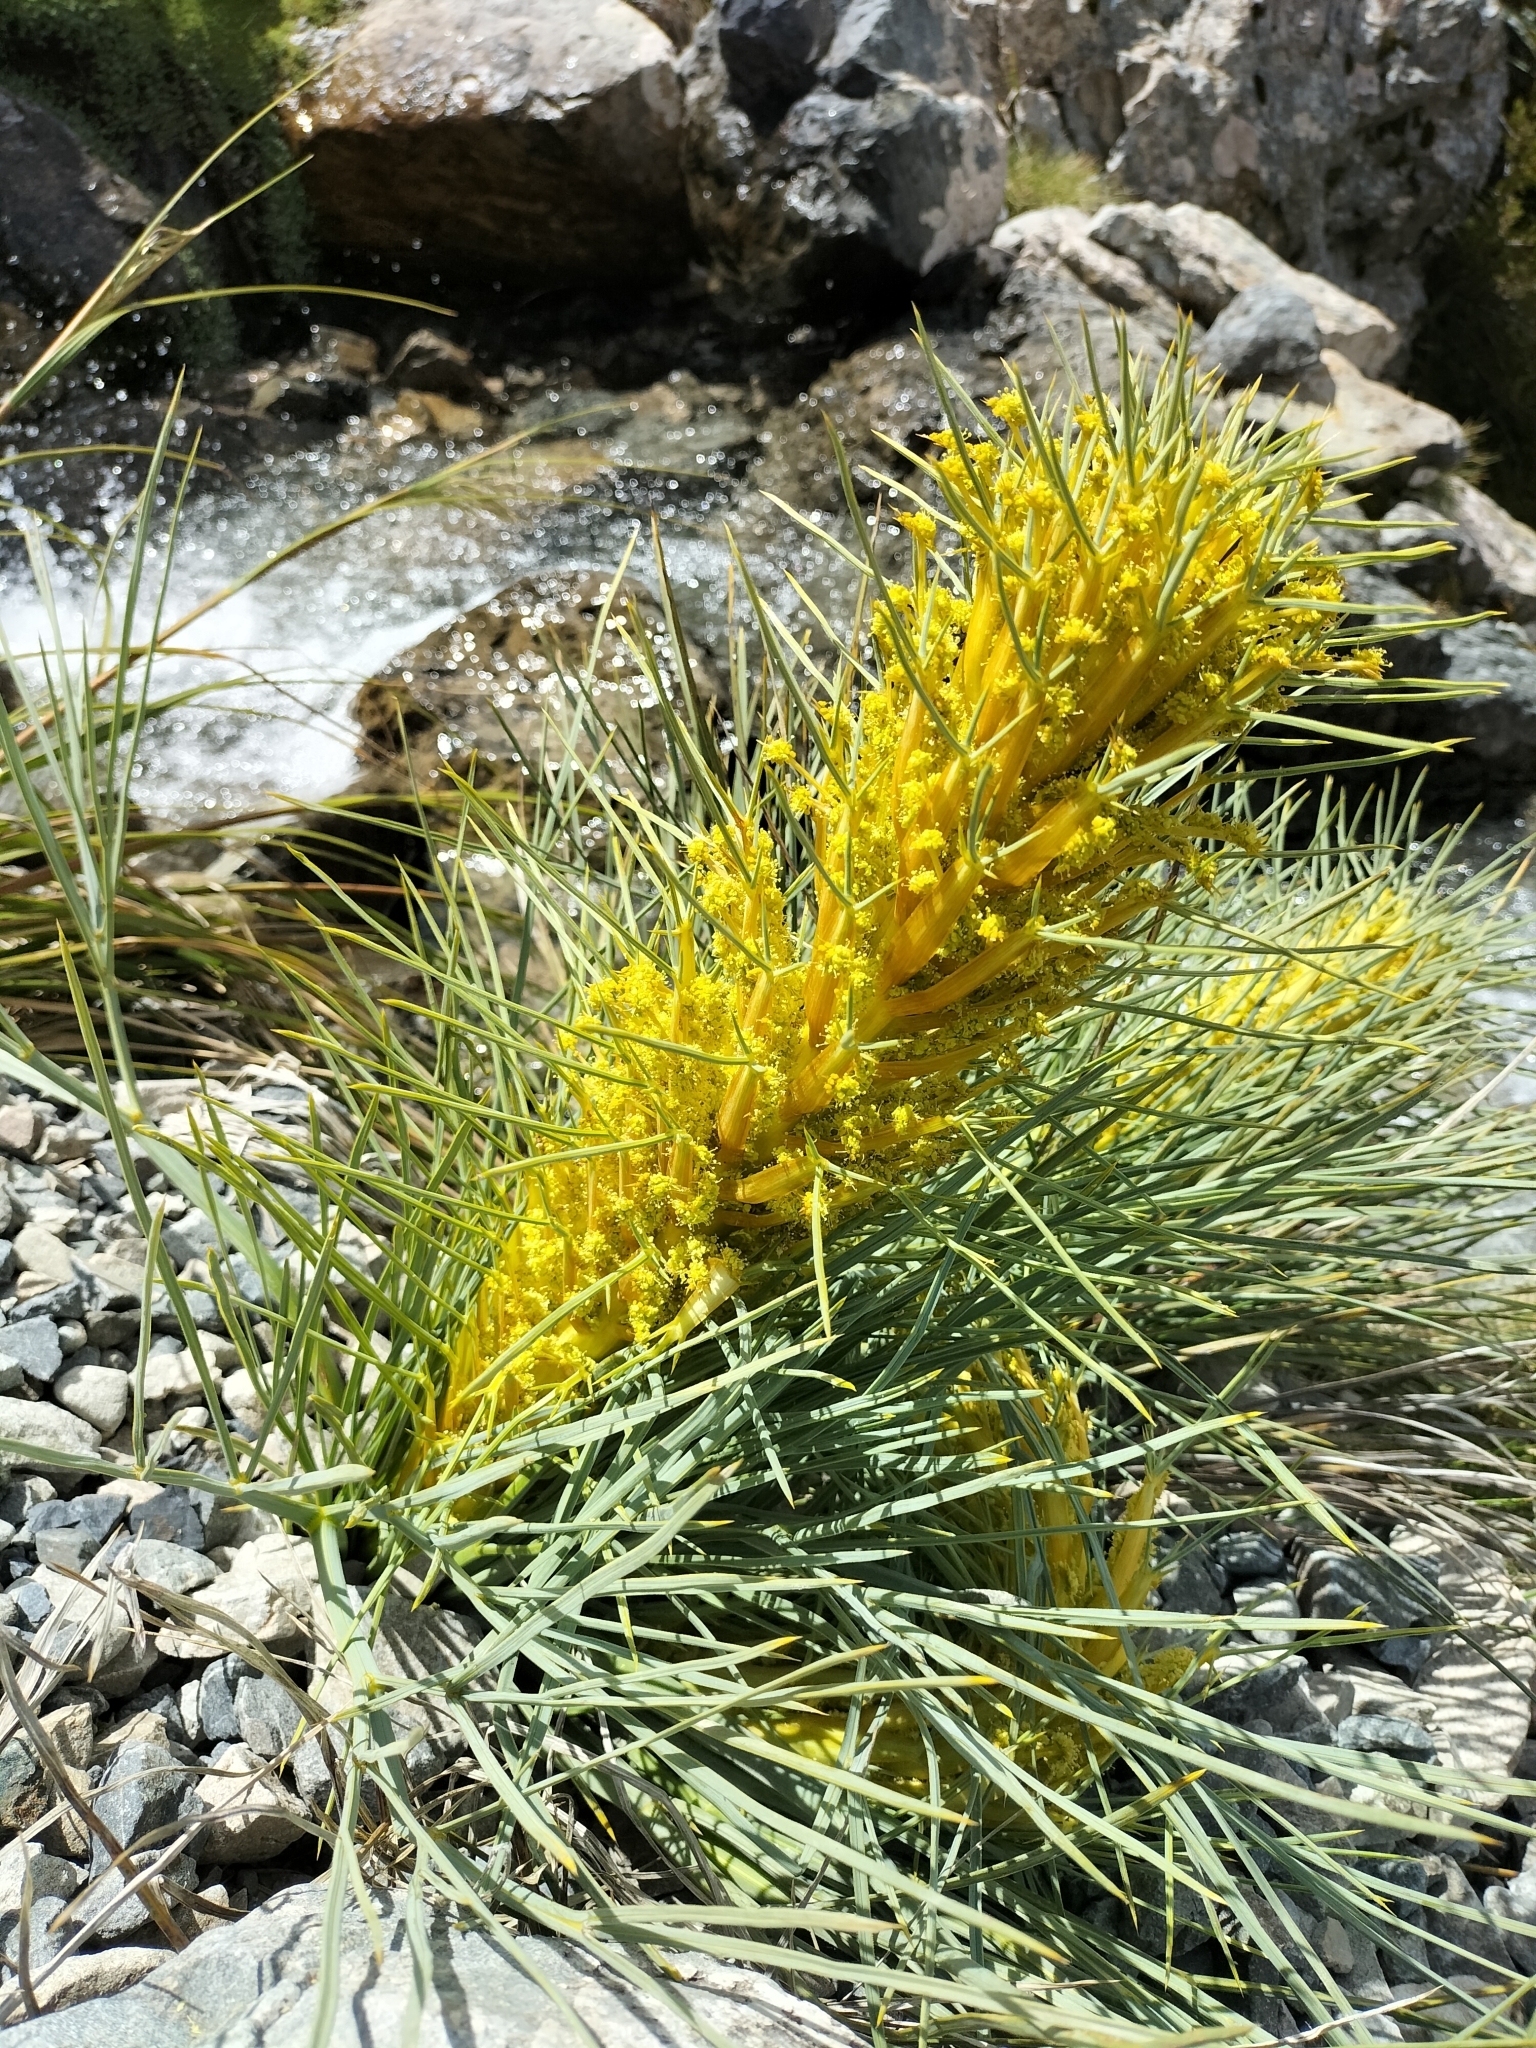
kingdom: Plantae
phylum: Tracheophyta
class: Magnoliopsida
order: Apiales
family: Apiaceae
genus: Aciphylla
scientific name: Aciphylla glaucescens
